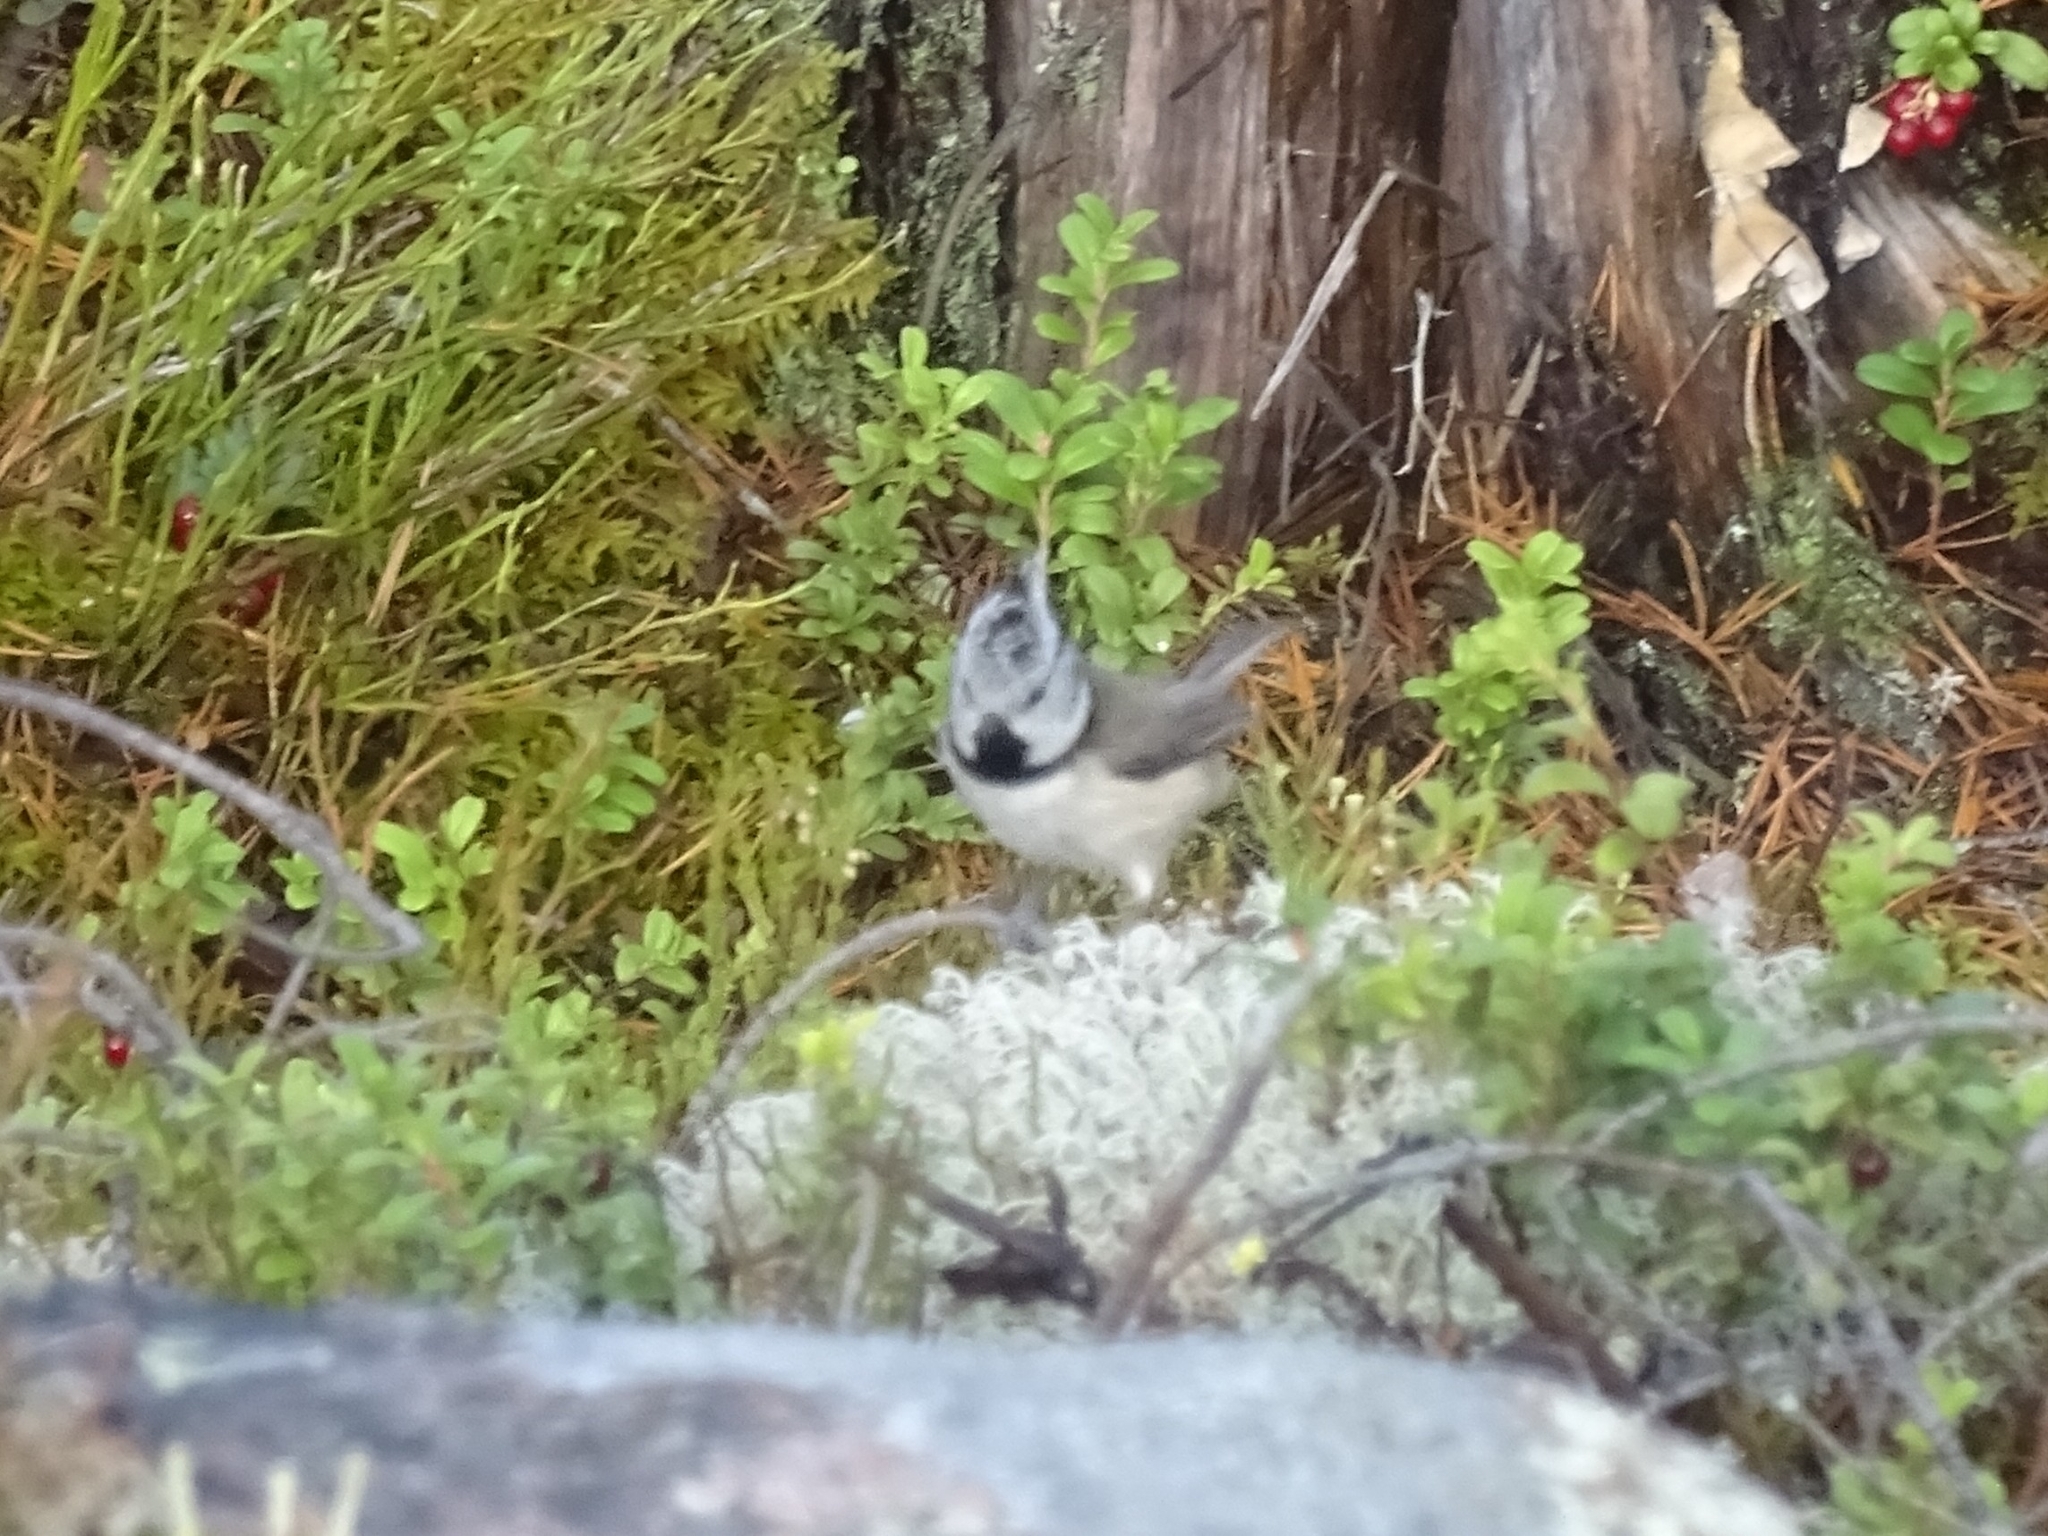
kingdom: Animalia
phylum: Chordata
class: Aves
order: Passeriformes
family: Paridae
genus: Lophophanes
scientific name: Lophophanes cristatus
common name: European crested tit
